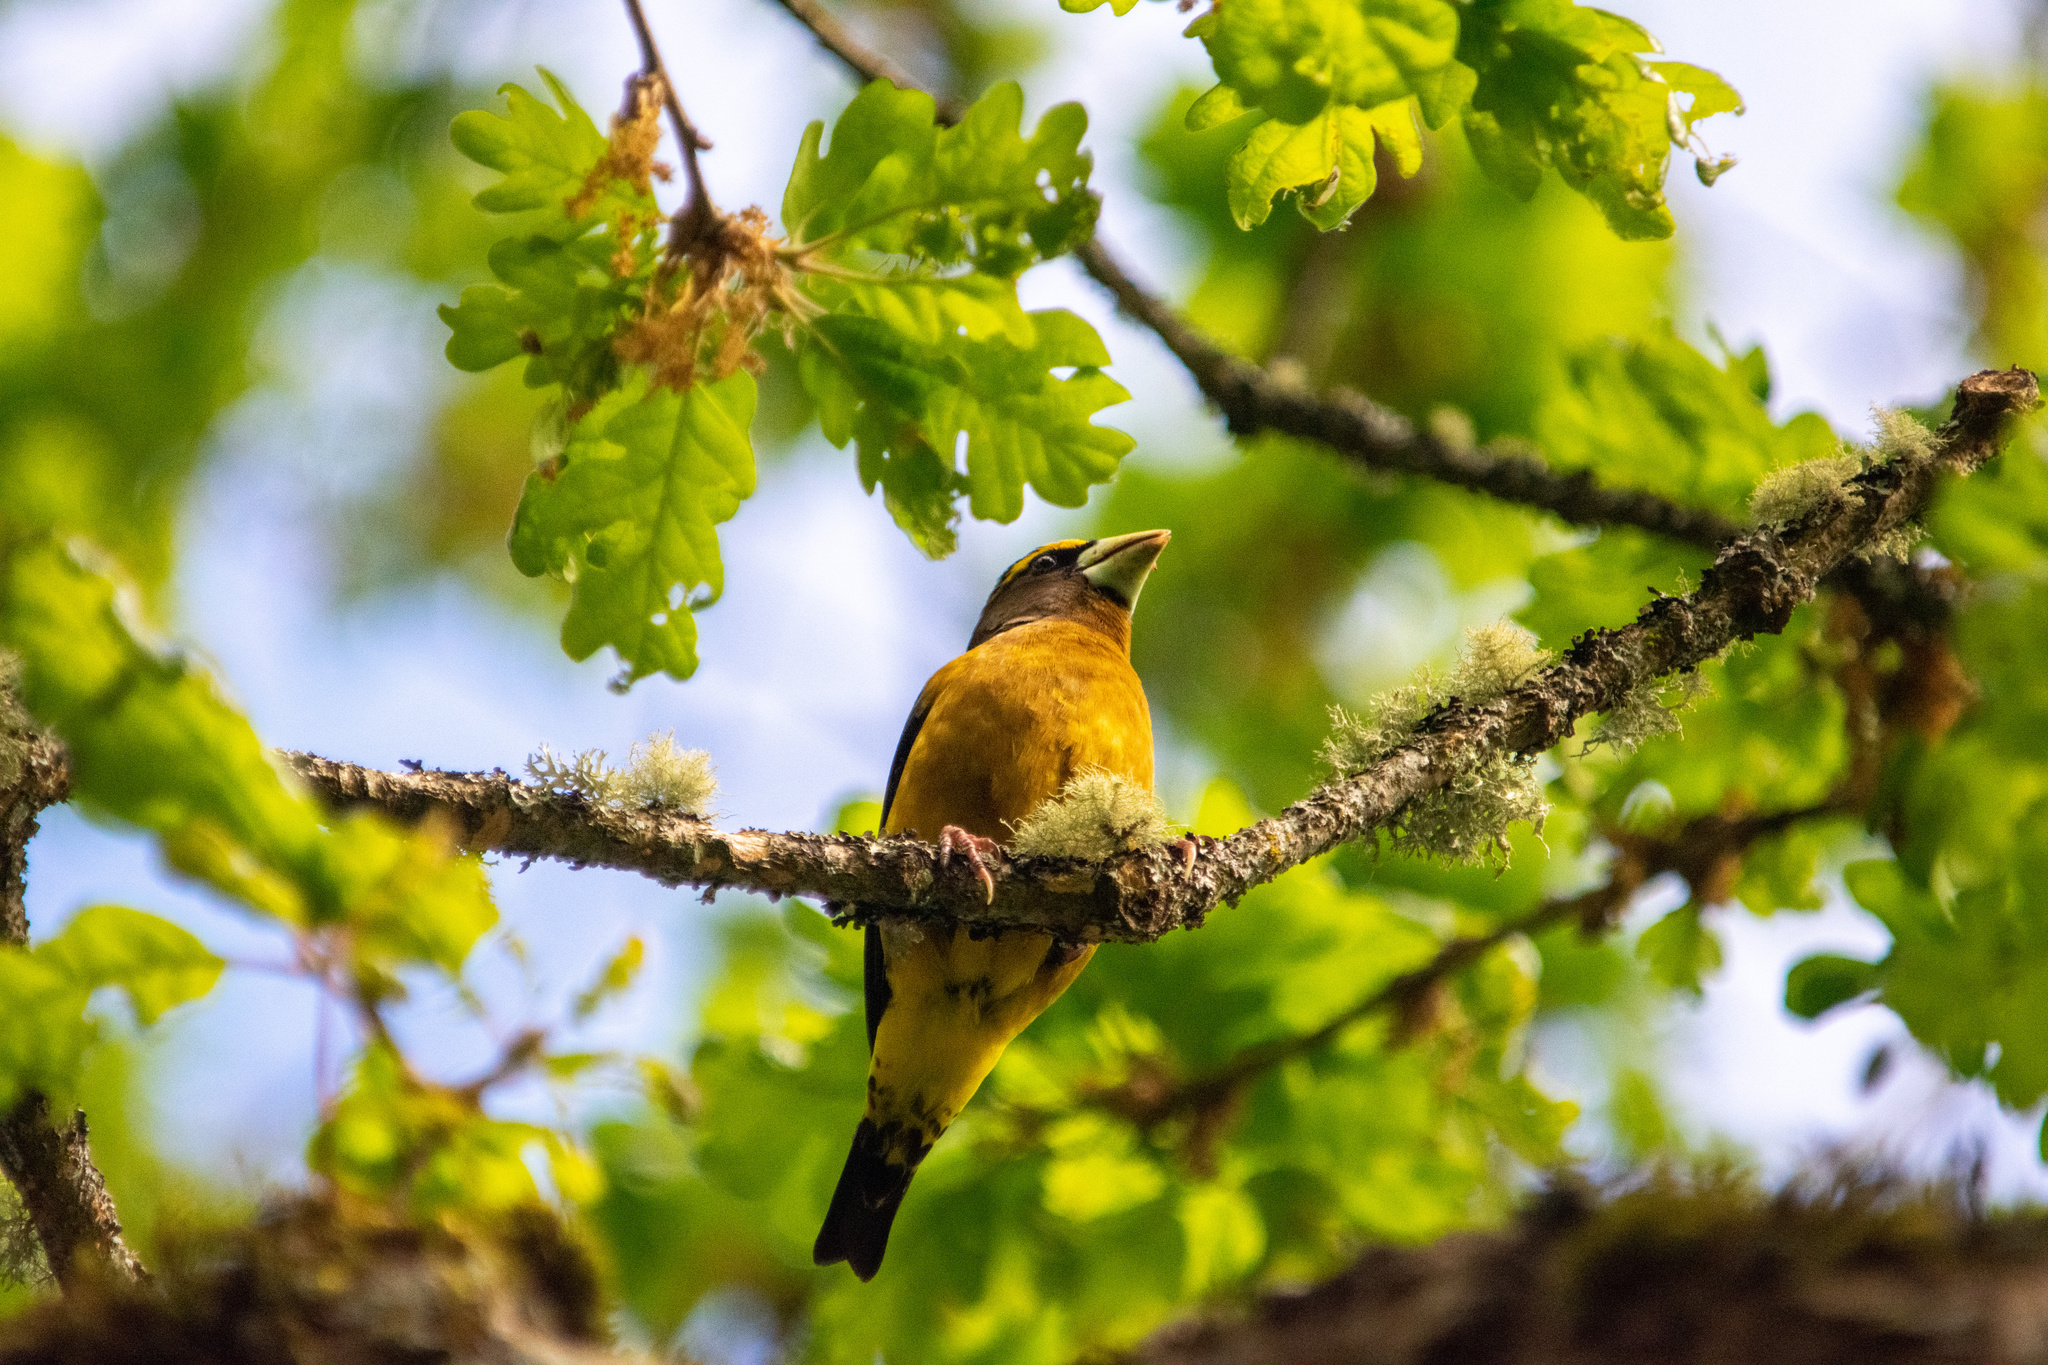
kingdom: Animalia
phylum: Chordata
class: Aves
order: Passeriformes
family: Fringillidae
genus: Hesperiphona
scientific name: Hesperiphona vespertina
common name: Evening grosbeak
